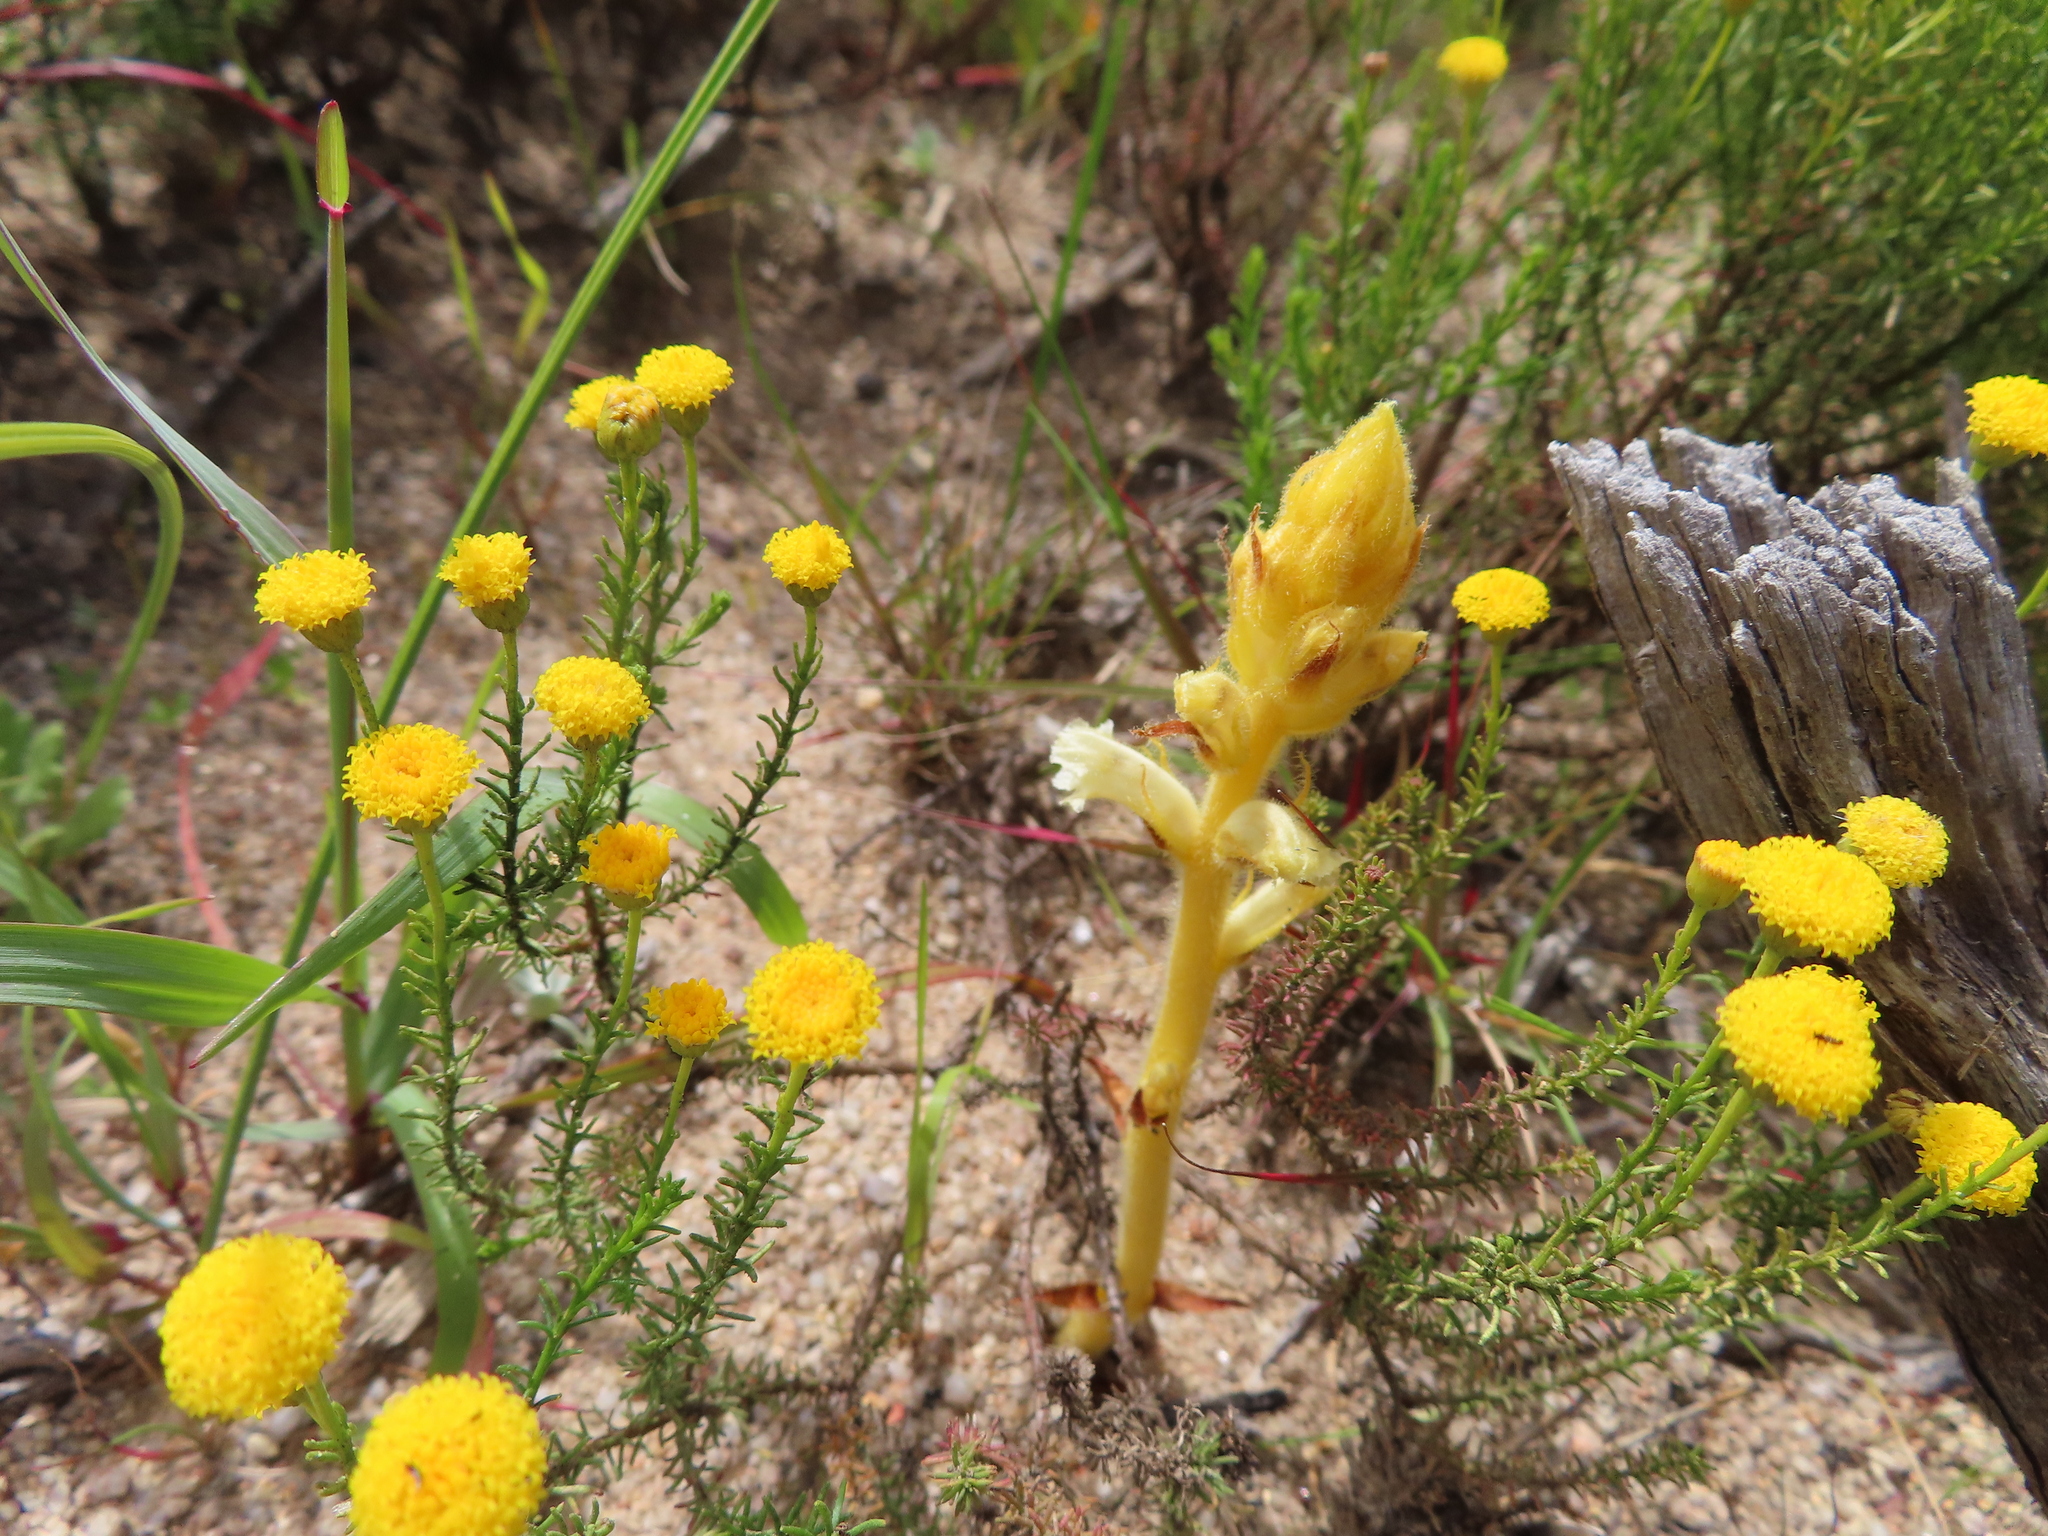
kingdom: Plantae
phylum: Tracheophyta
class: Magnoliopsida
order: Lamiales
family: Orobanchaceae
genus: Orobanche
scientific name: Orobanche minor
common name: Common broomrape
